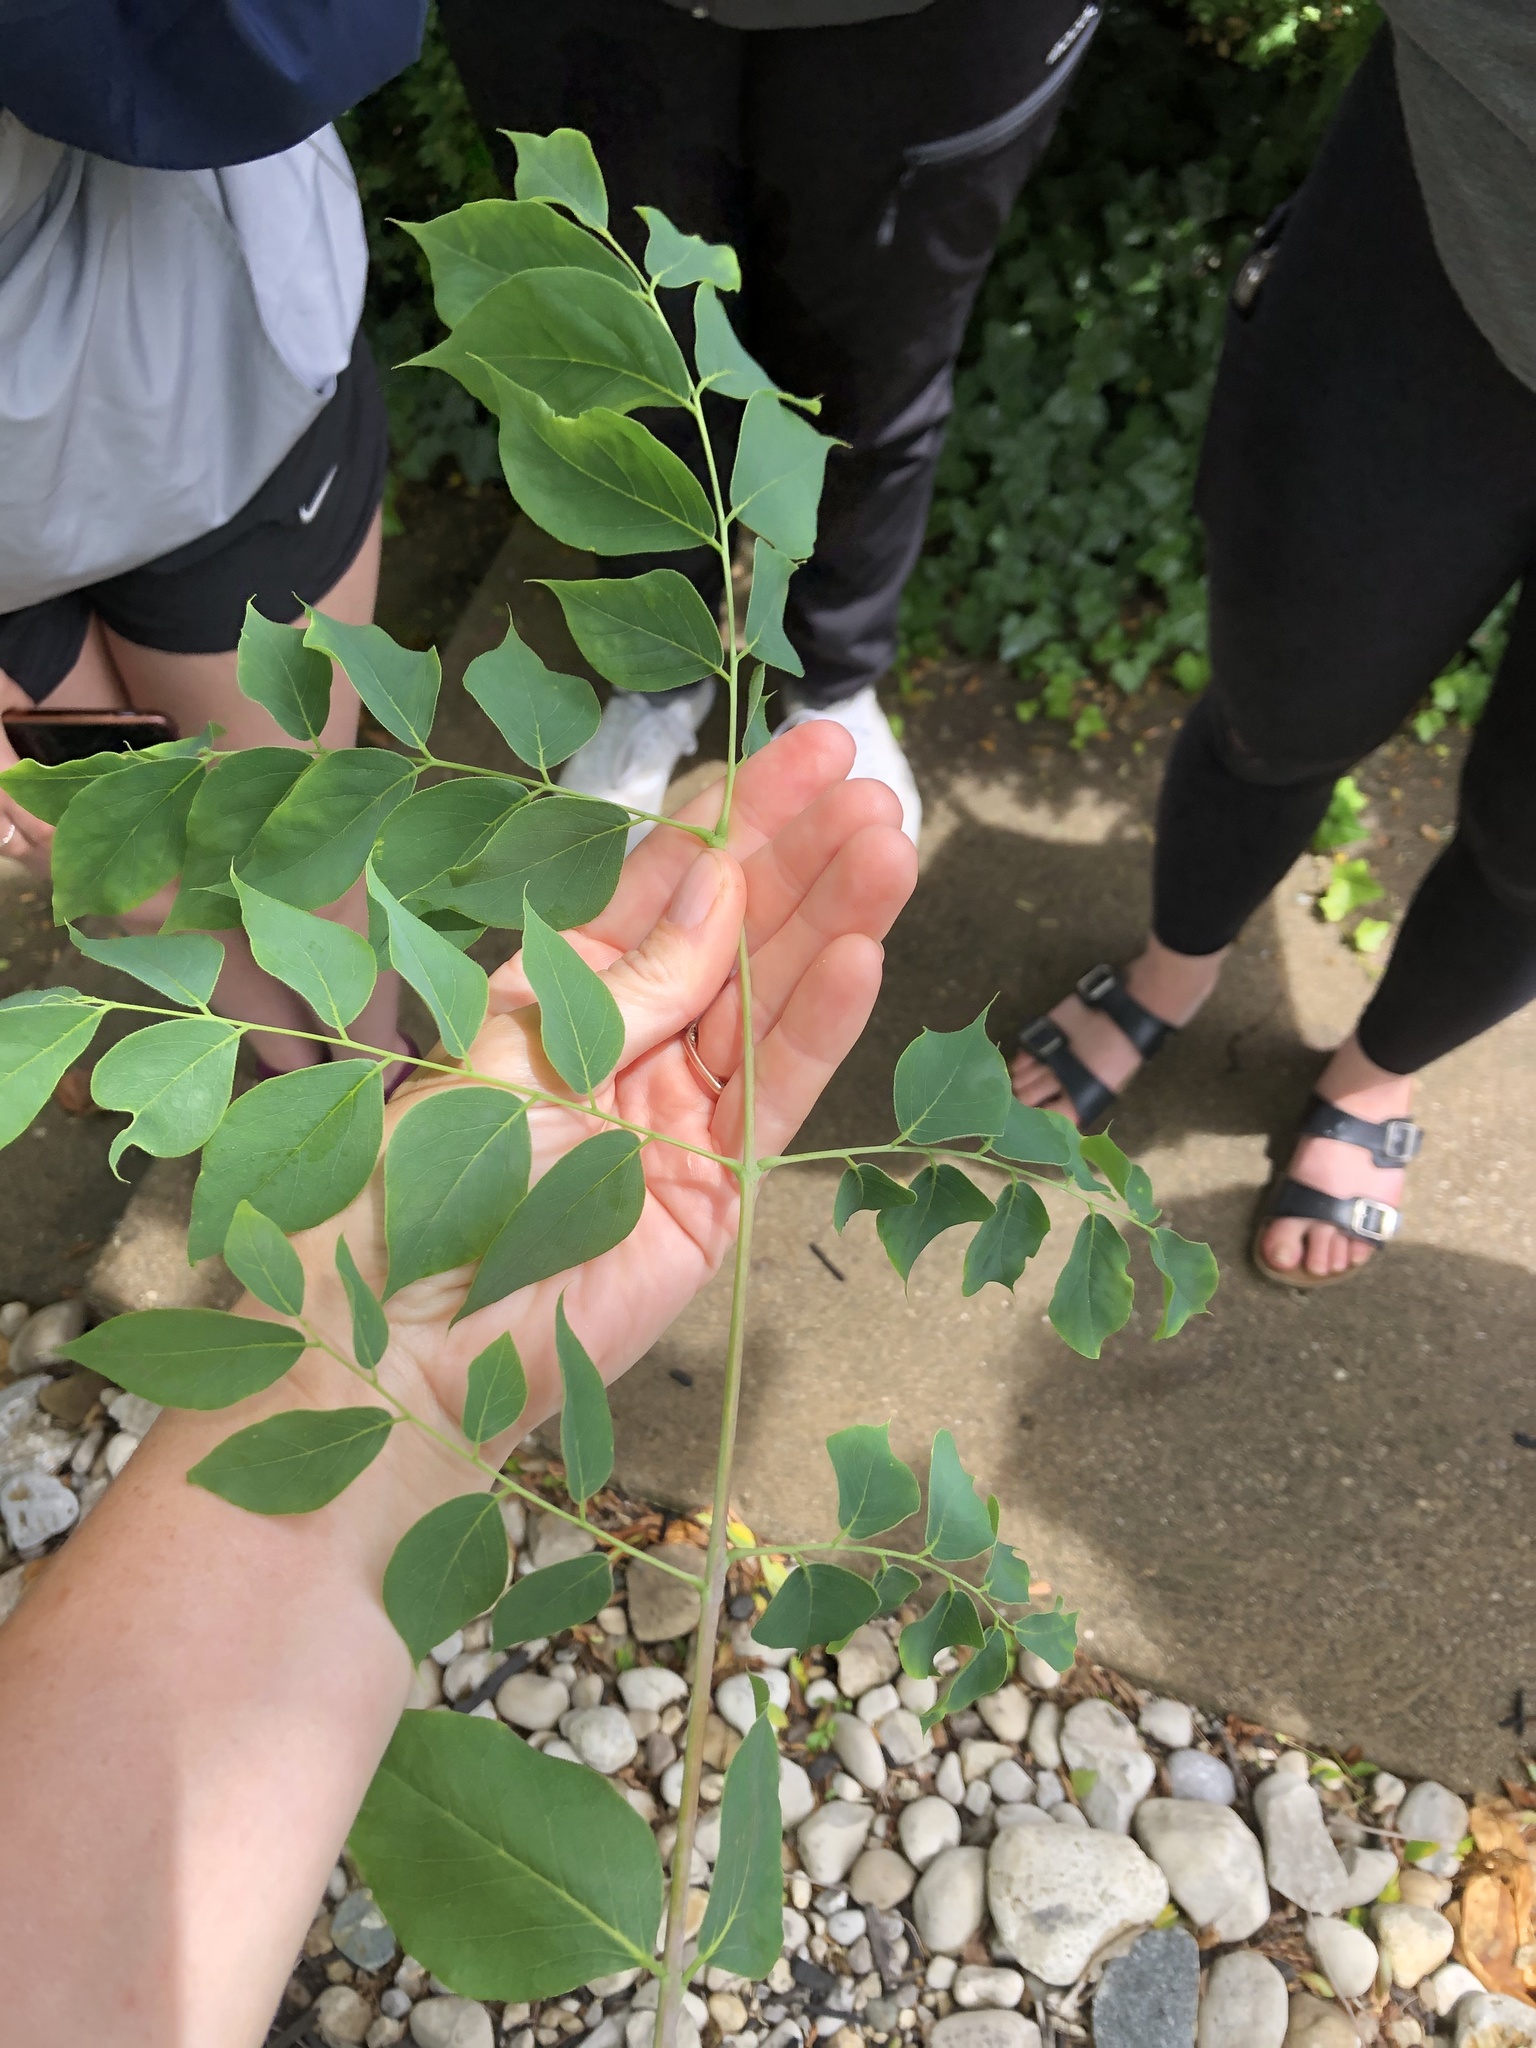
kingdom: Plantae
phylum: Tracheophyta
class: Magnoliopsida
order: Fabales
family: Fabaceae
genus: Gymnocladus
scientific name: Gymnocladus dioicus
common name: Kentucky coffee-tree
